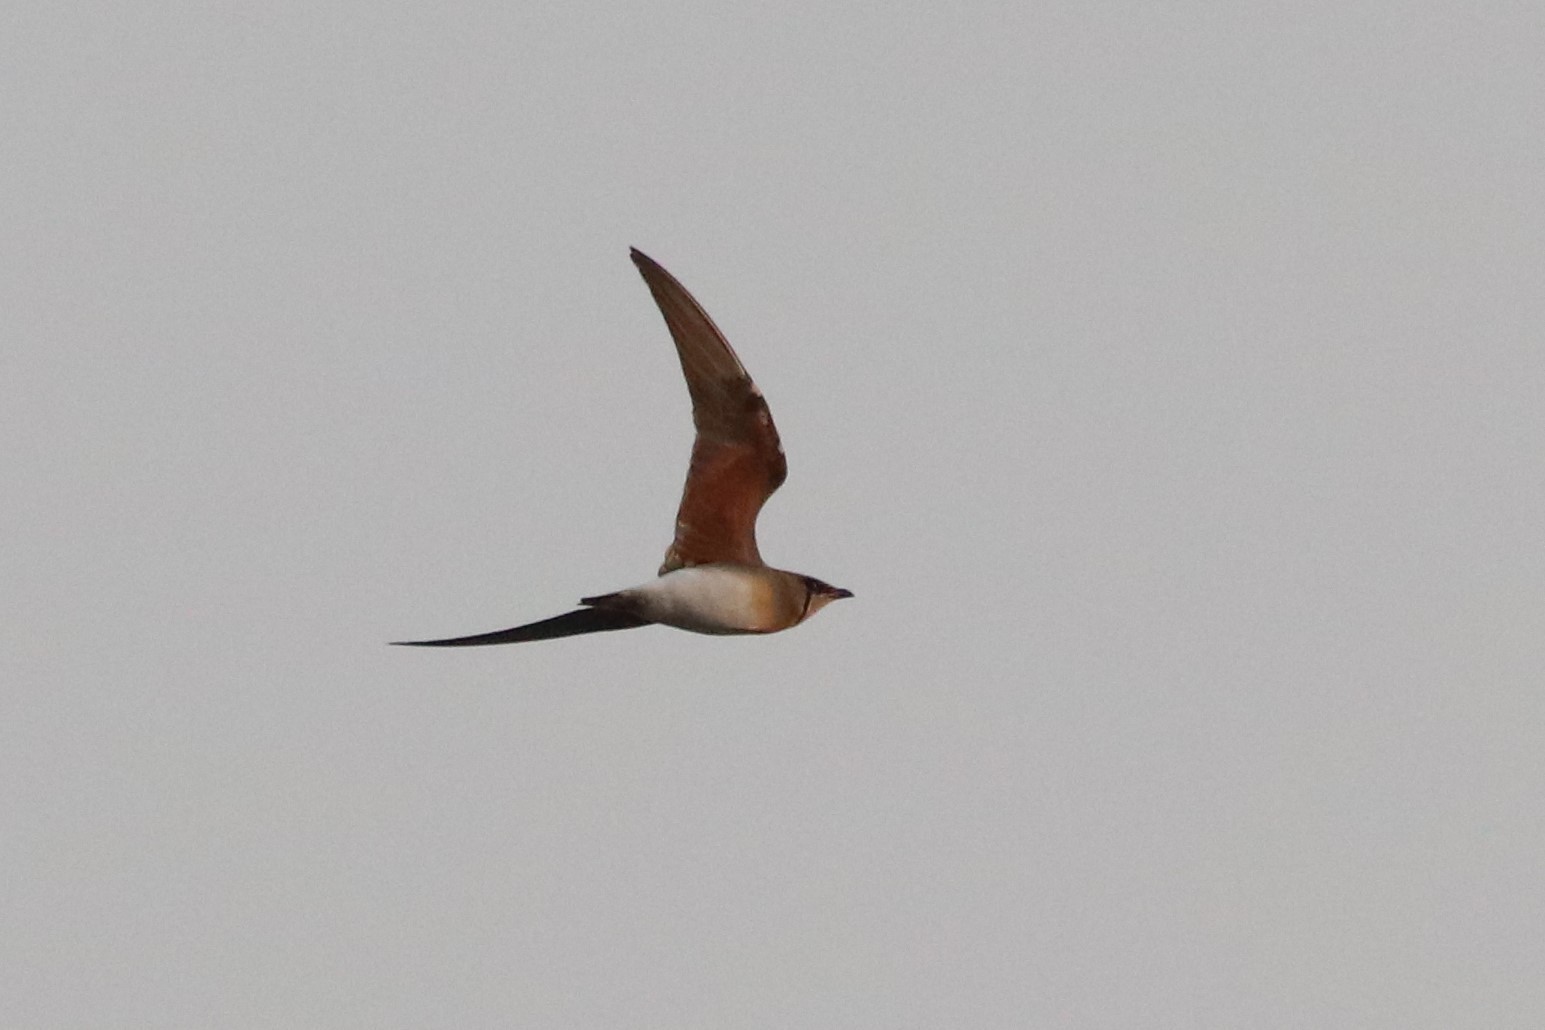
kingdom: Animalia
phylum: Chordata
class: Aves
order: Charadriiformes
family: Glareolidae
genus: Glareola
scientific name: Glareola maldivarum
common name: Oriental pratincole
